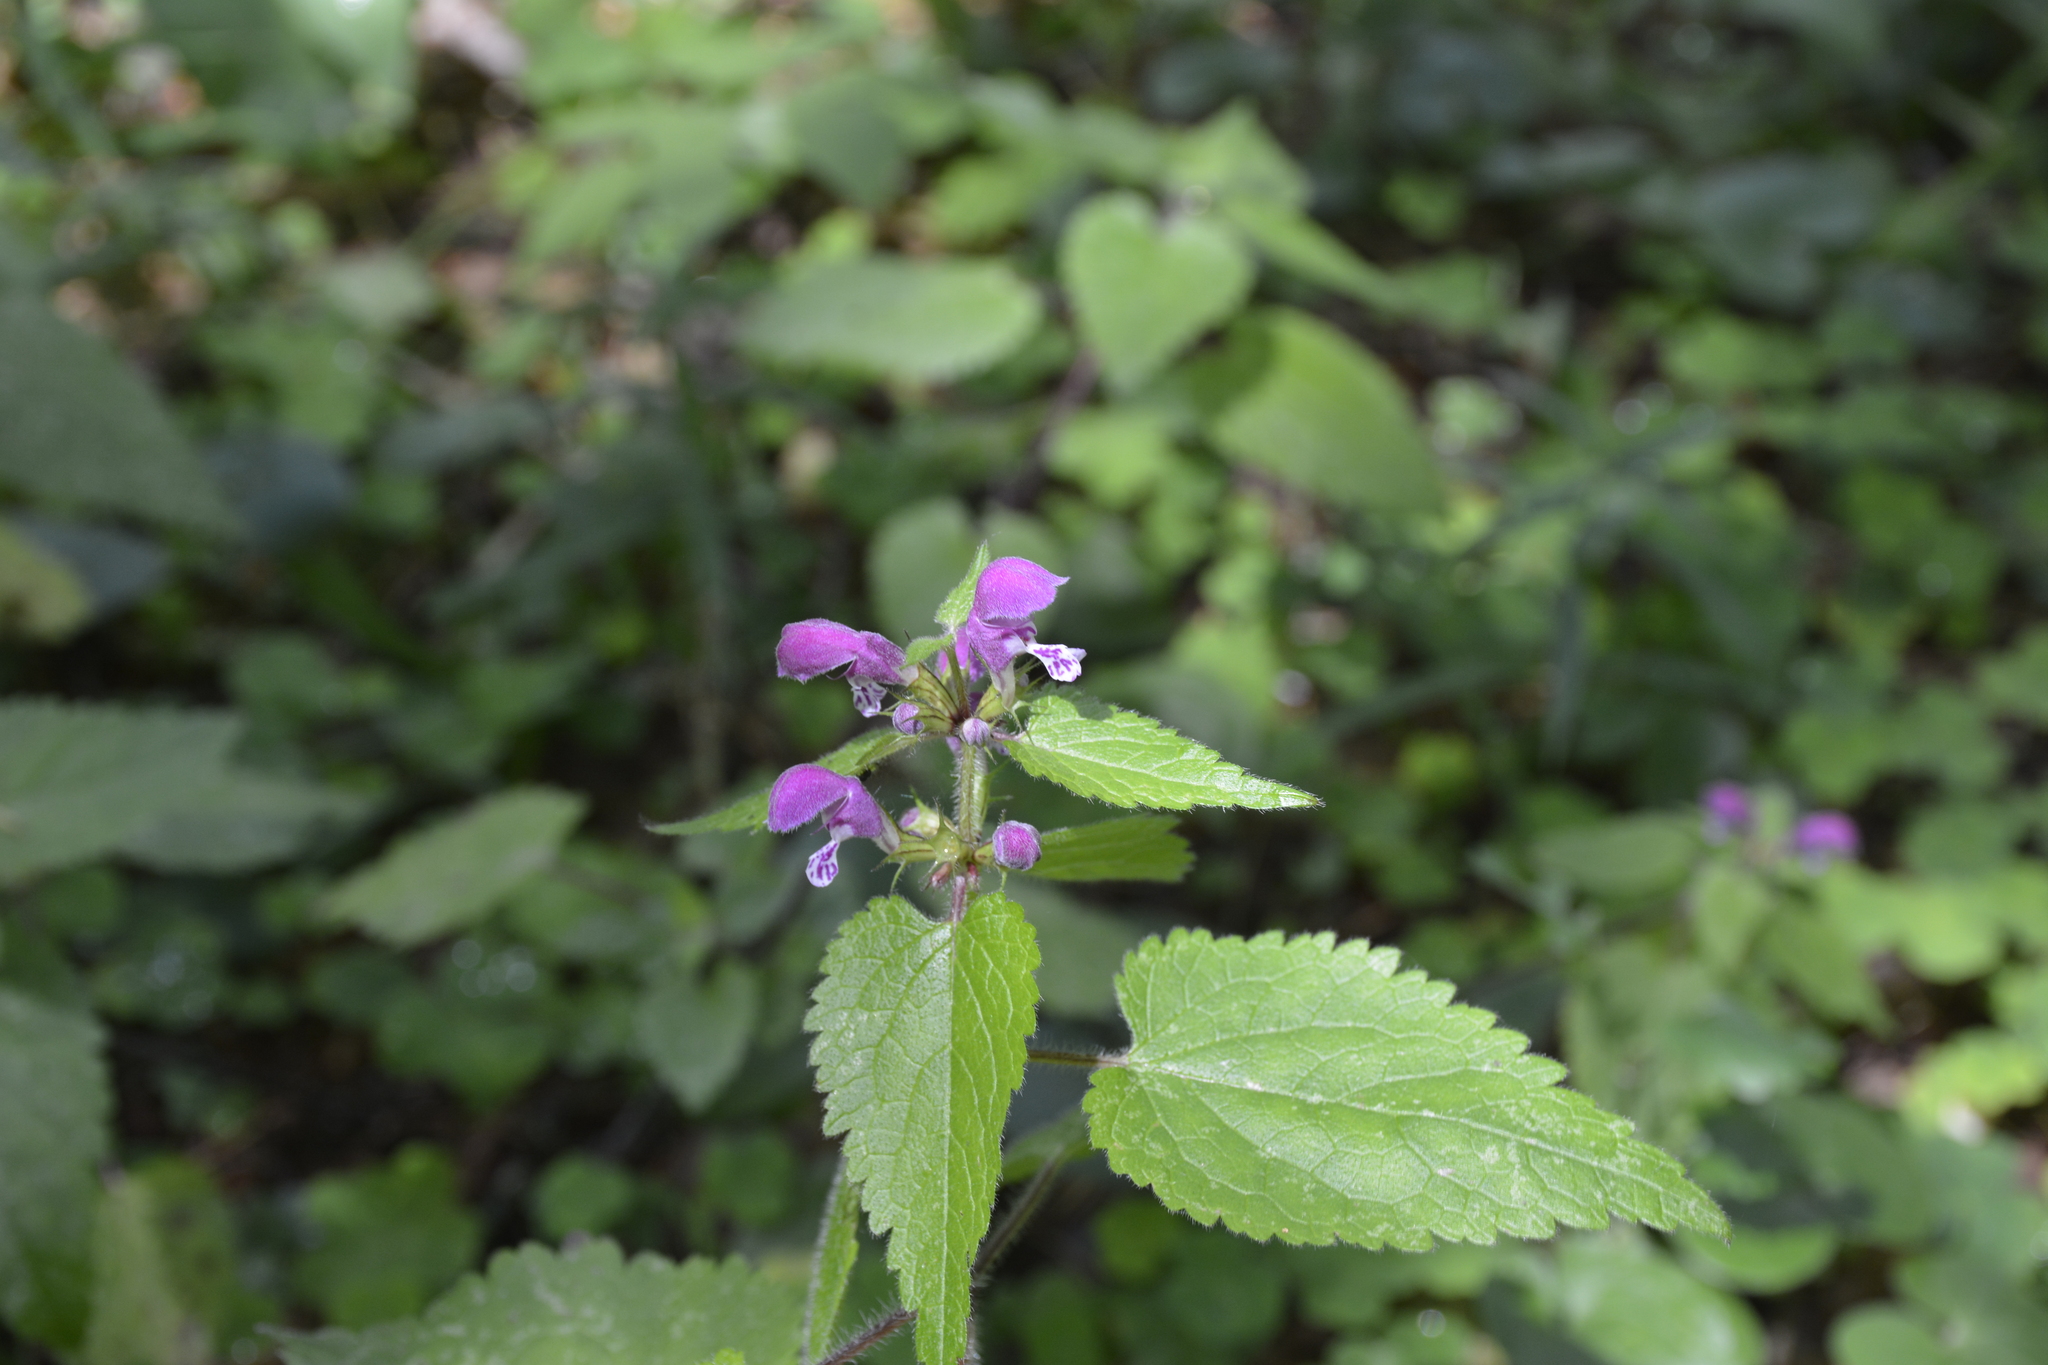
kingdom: Plantae
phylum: Tracheophyta
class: Magnoliopsida
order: Lamiales
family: Lamiaceae
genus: Lamium
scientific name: Lamium maculatum
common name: Spotted dead-nettle
